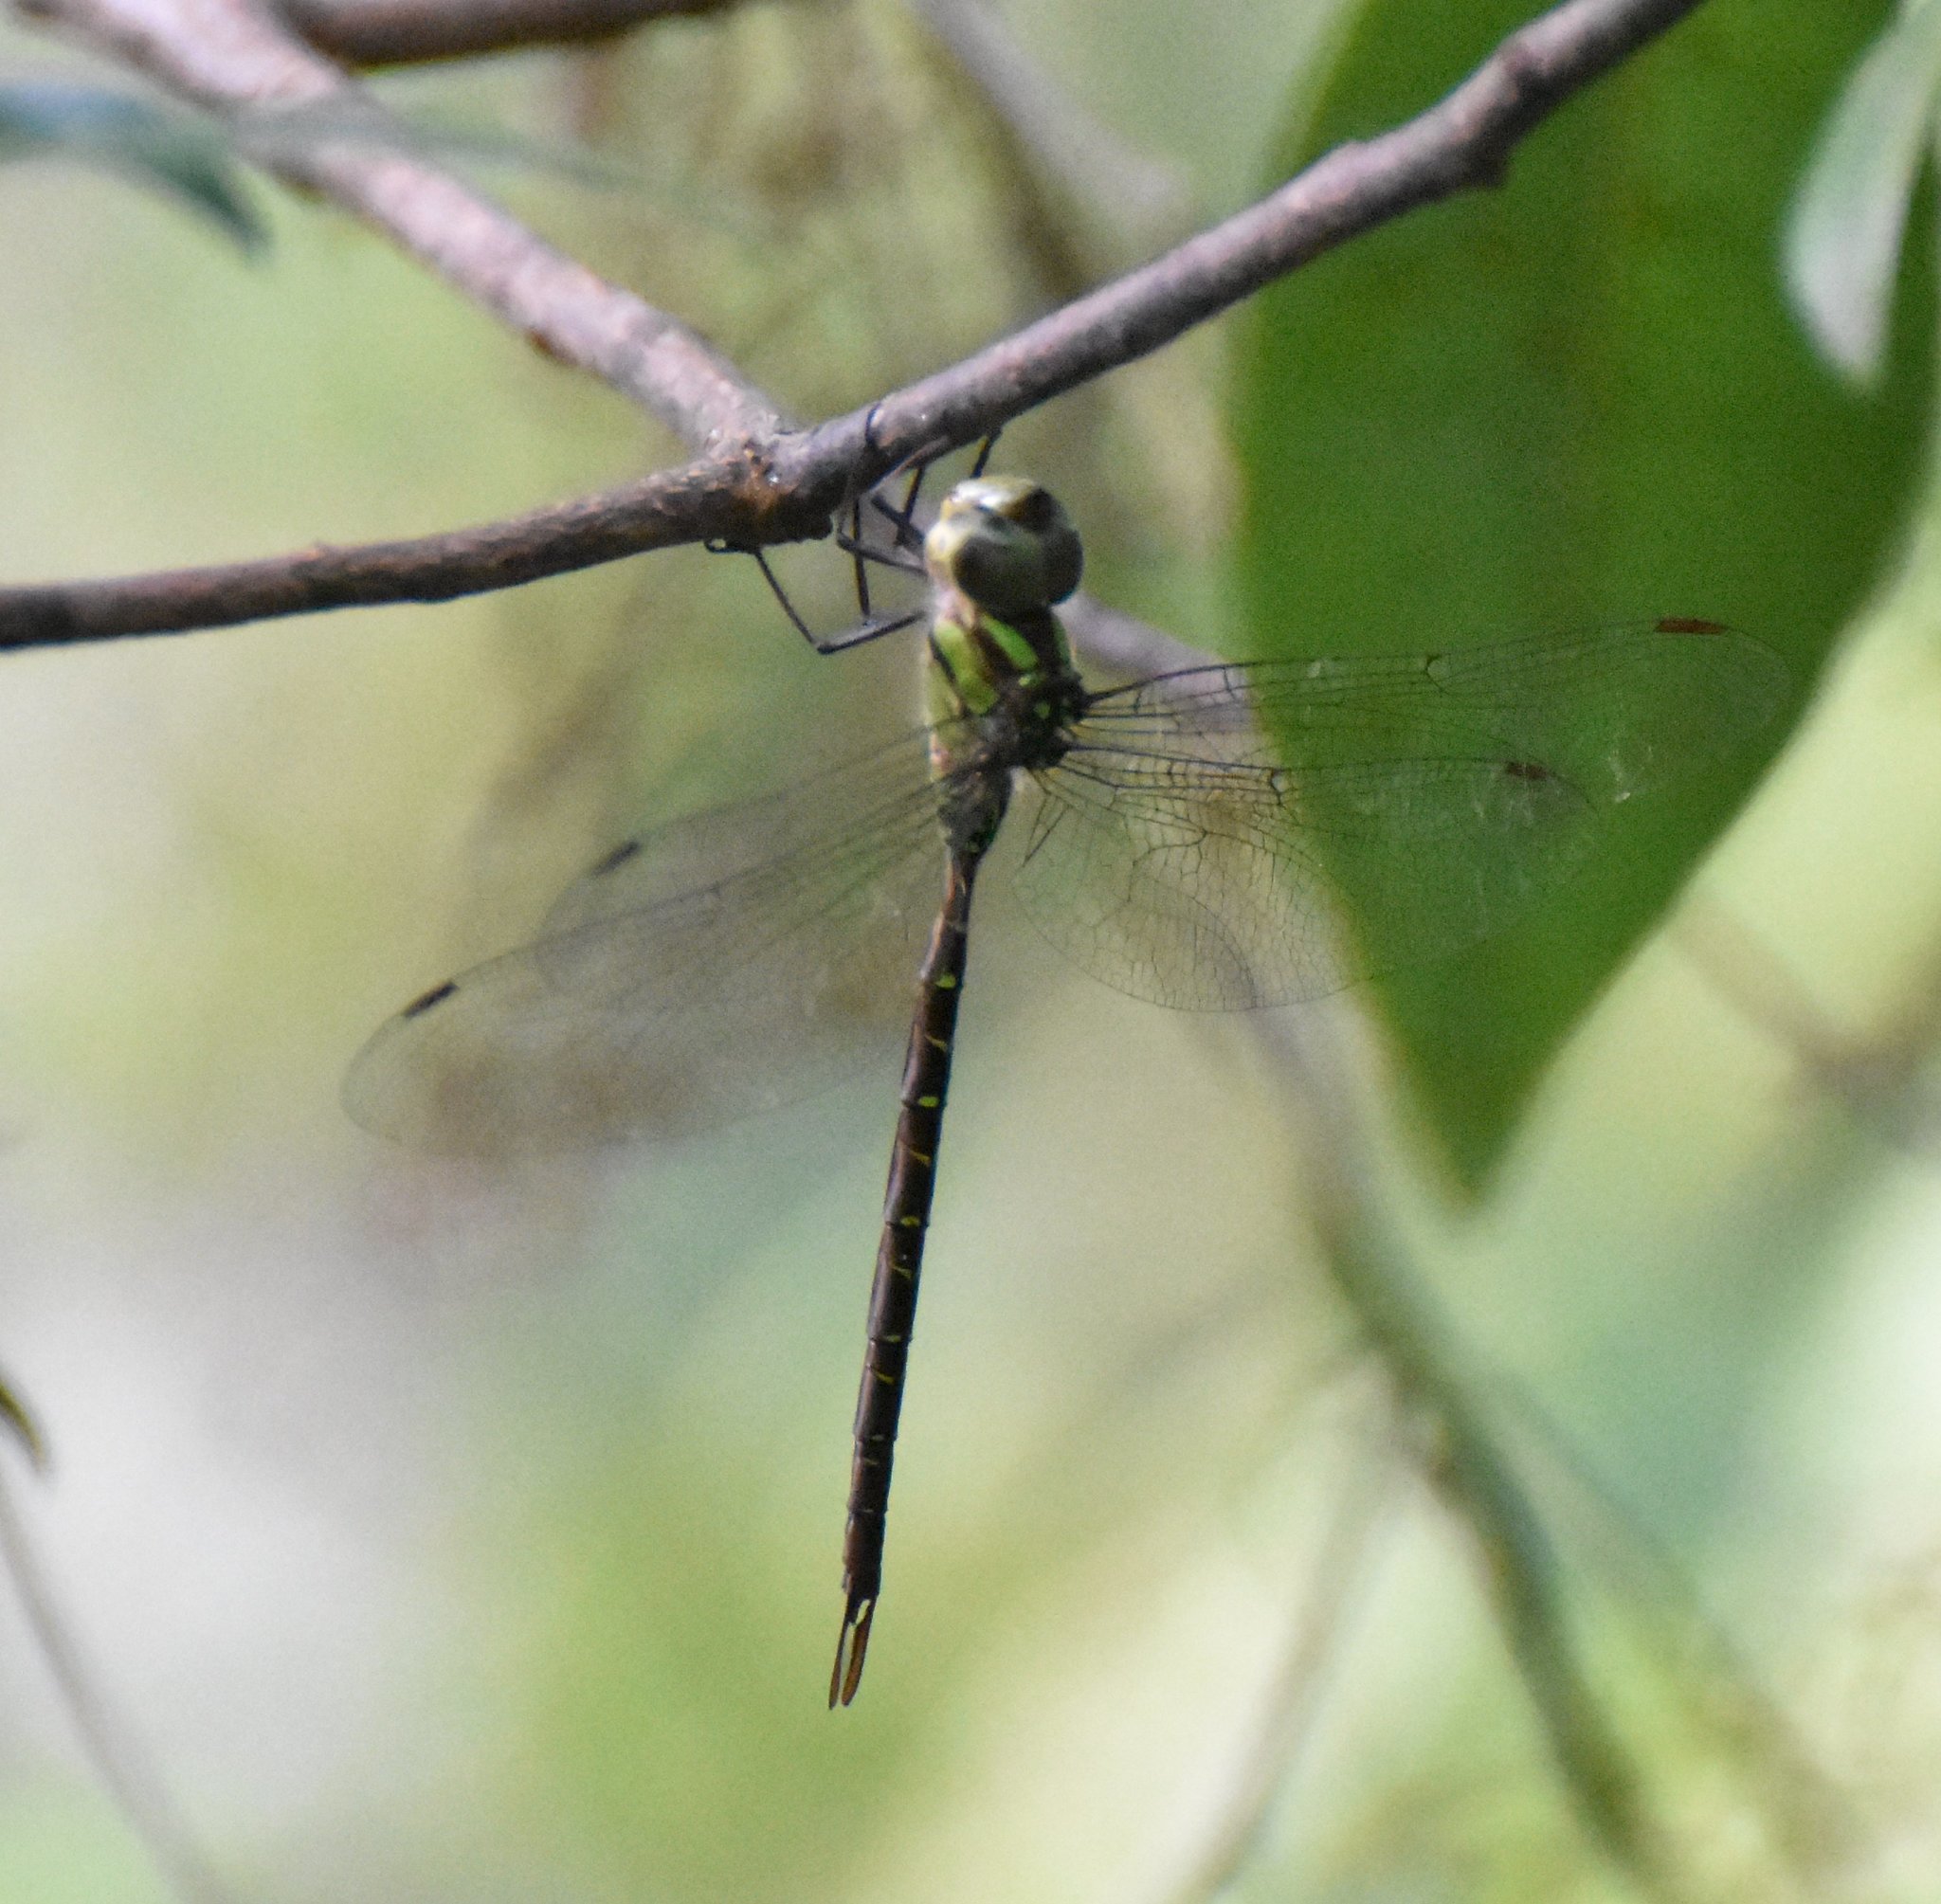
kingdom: Animalia
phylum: Arthropoda
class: Insecta
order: Odonata
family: Aeshnidae
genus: Triacanthagyna
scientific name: Triacanthagyna trifida
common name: Phantom darner
